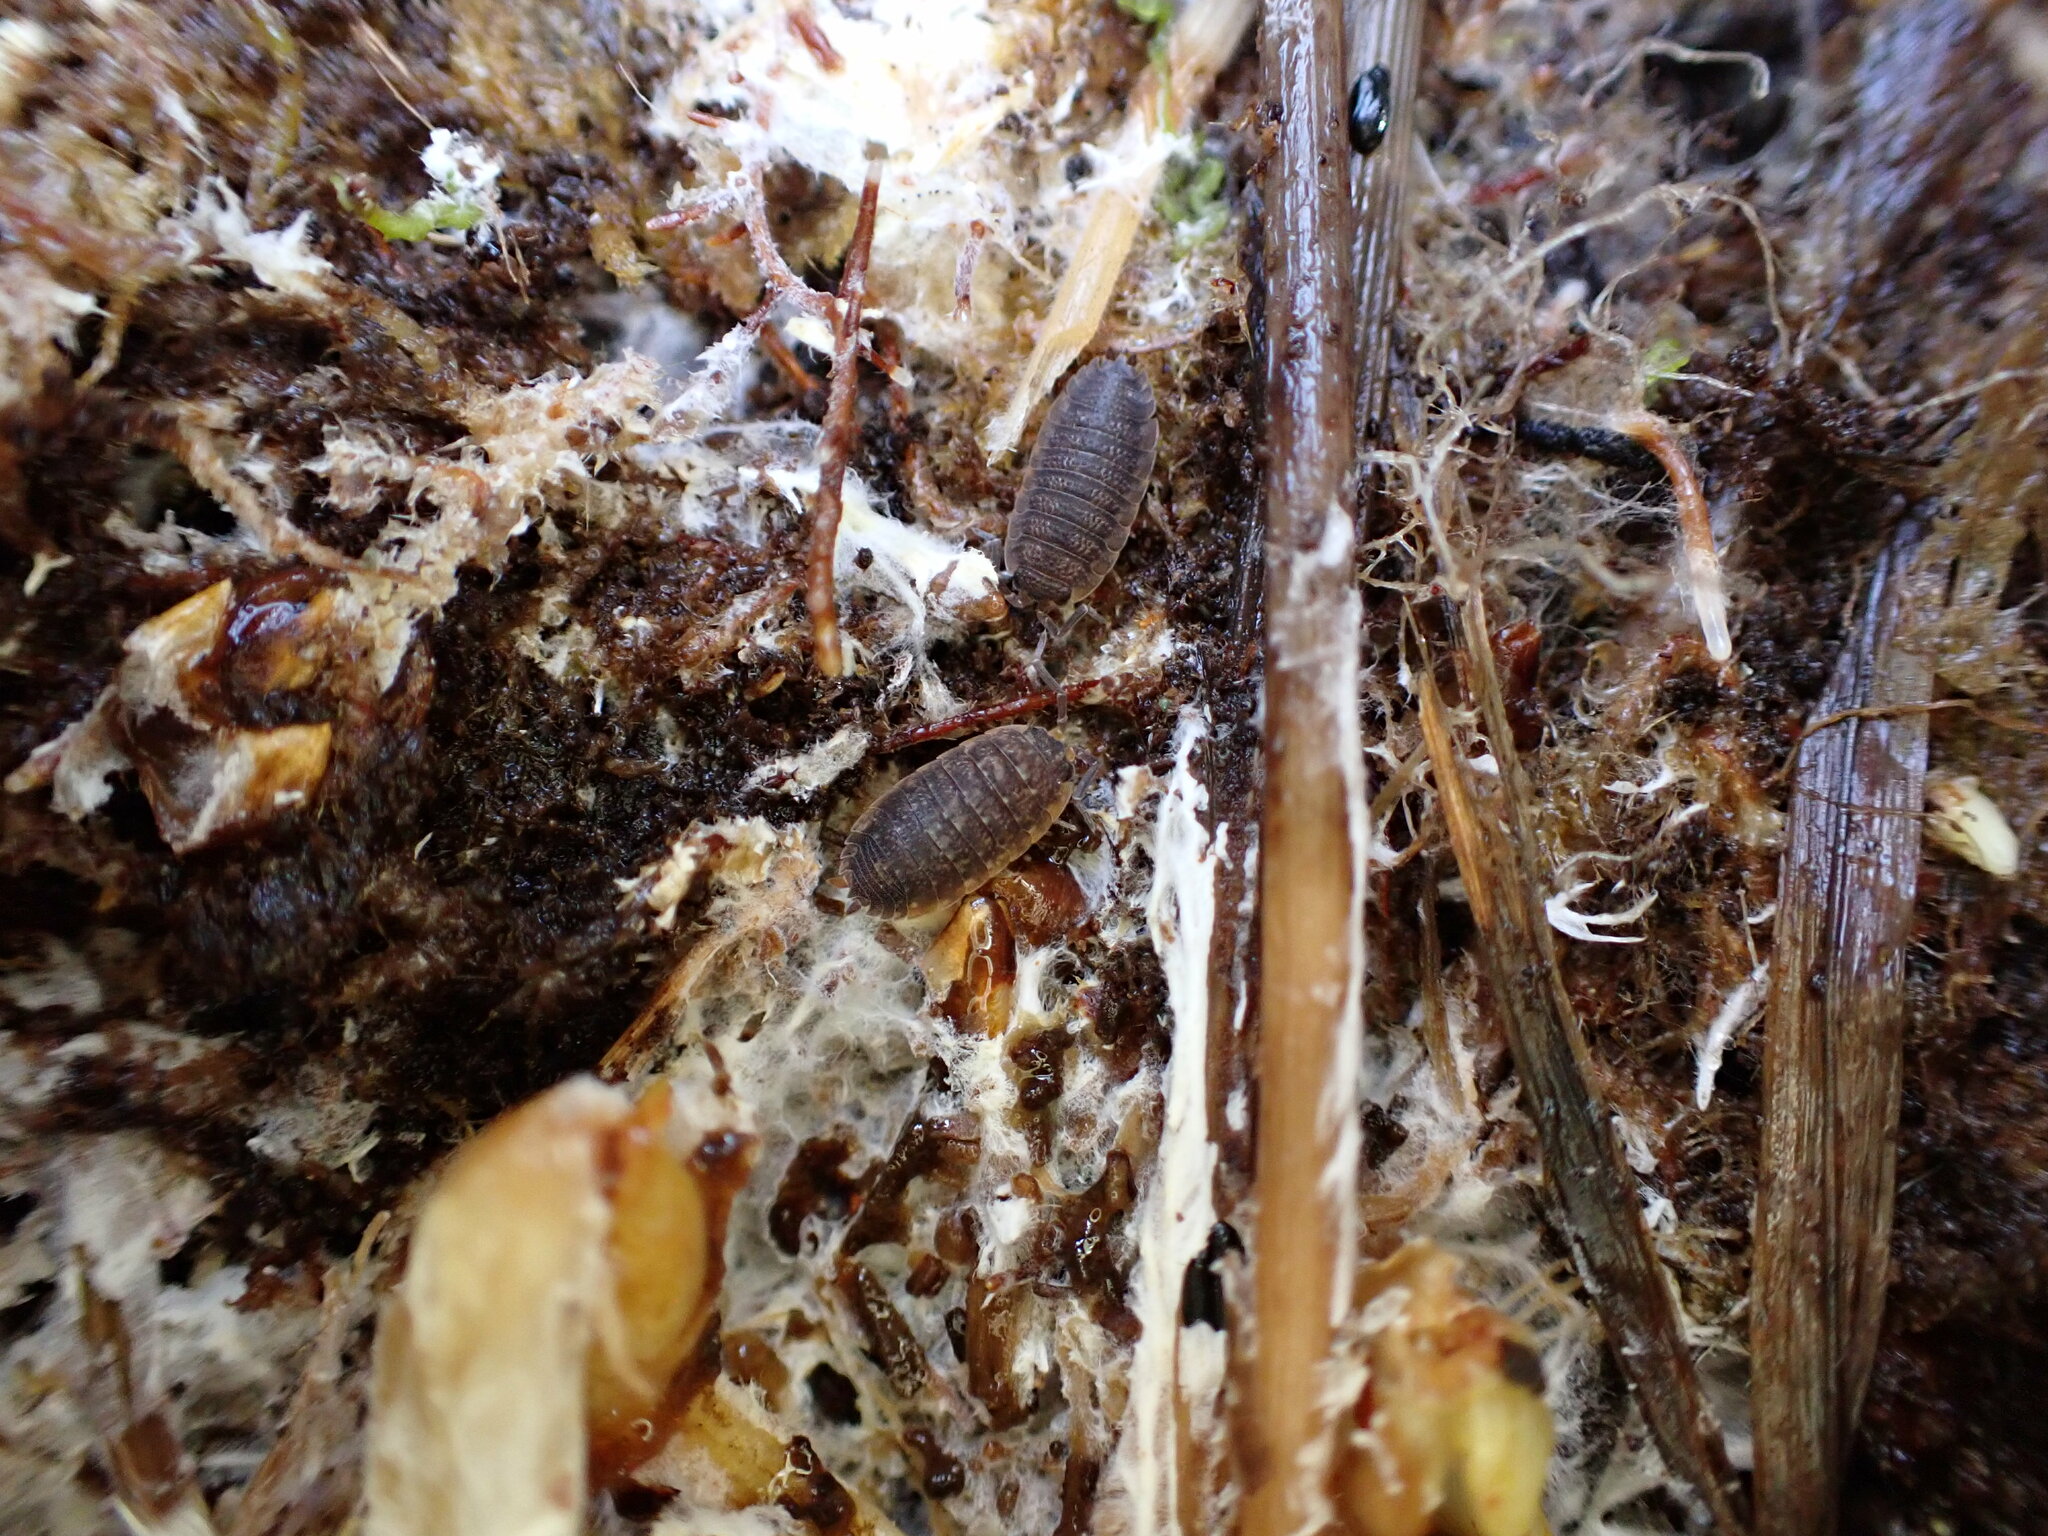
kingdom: Animalia
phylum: Arthropoda
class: Malacostraca
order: Isopoda
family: Porcellionidae
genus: Porcellio
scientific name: Porcellio scaber
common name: Common rough woodlouse
